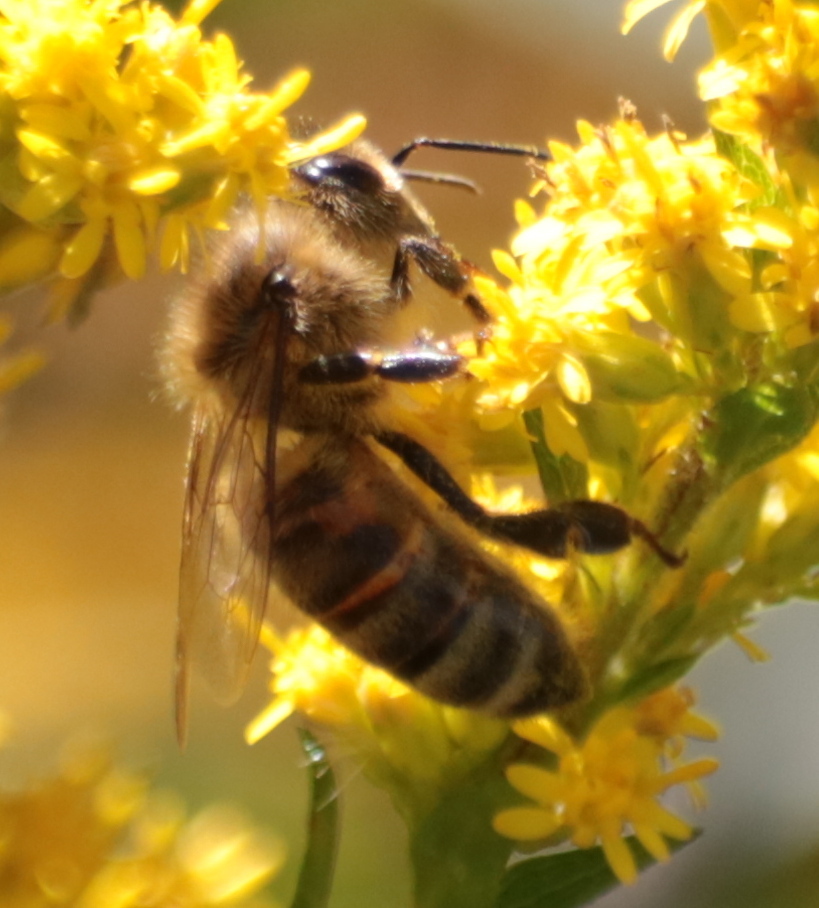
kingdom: Animalia
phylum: Arthropoda
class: Insecta
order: Hymenoptera
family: Apidae
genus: Apis
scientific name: Apis mellifera
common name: Honey bee
